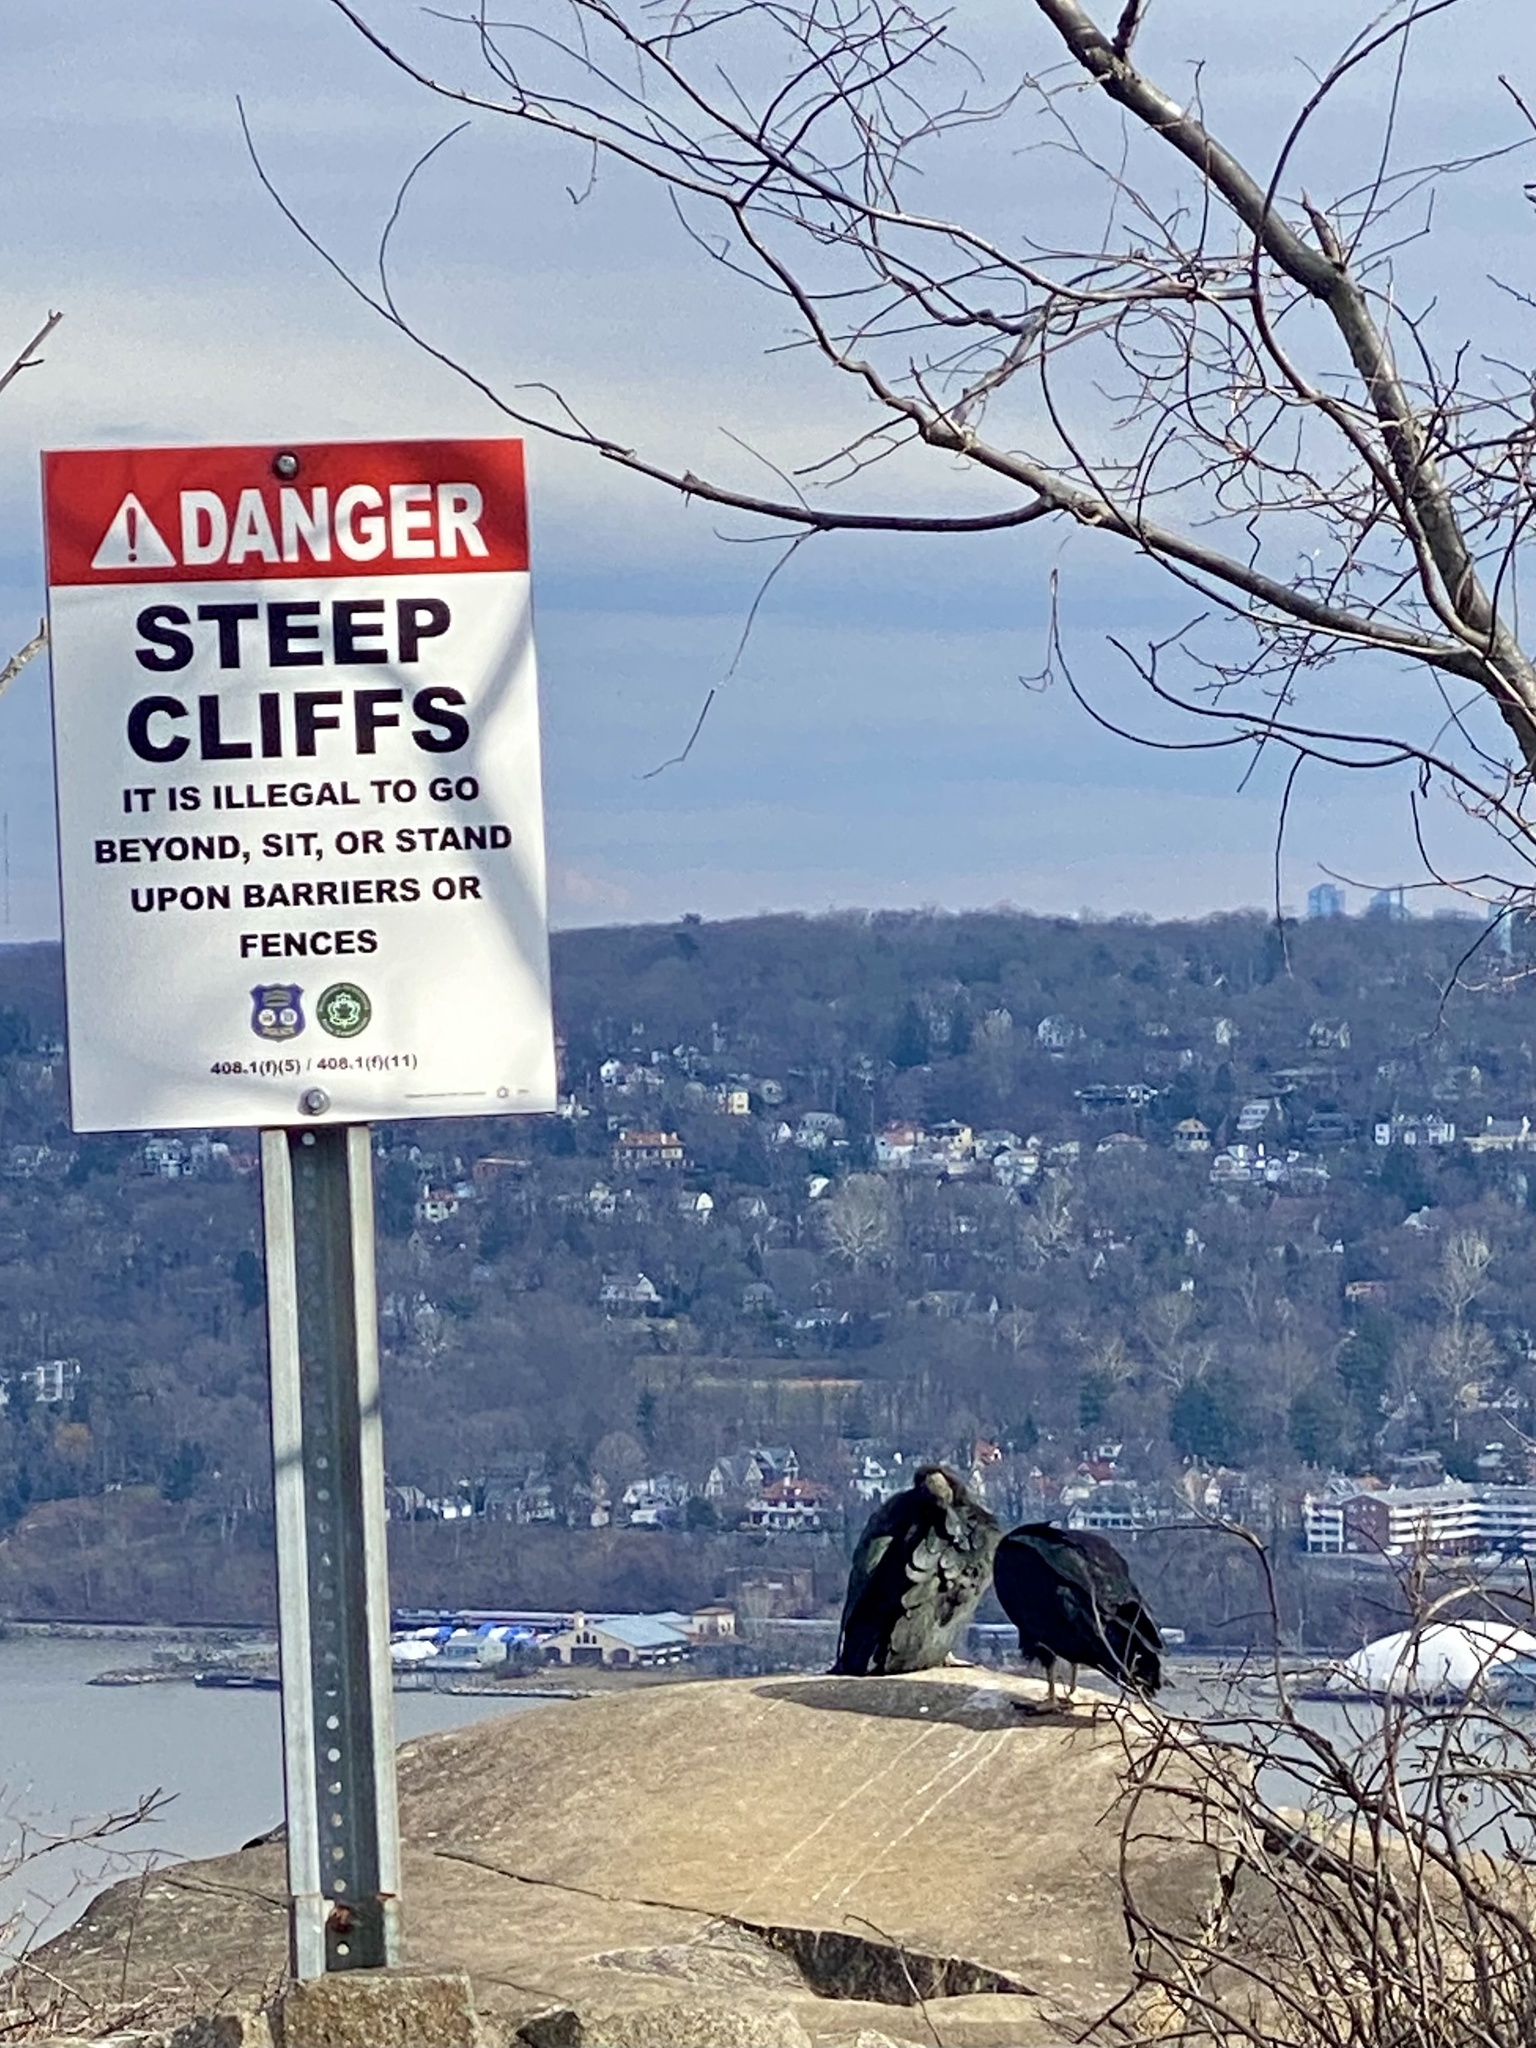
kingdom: Animalia
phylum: Chordata
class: Aves
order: Accipitriformes
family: Cathartidae
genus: Coragyps
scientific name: Coragyps atratus
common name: Black vulture
